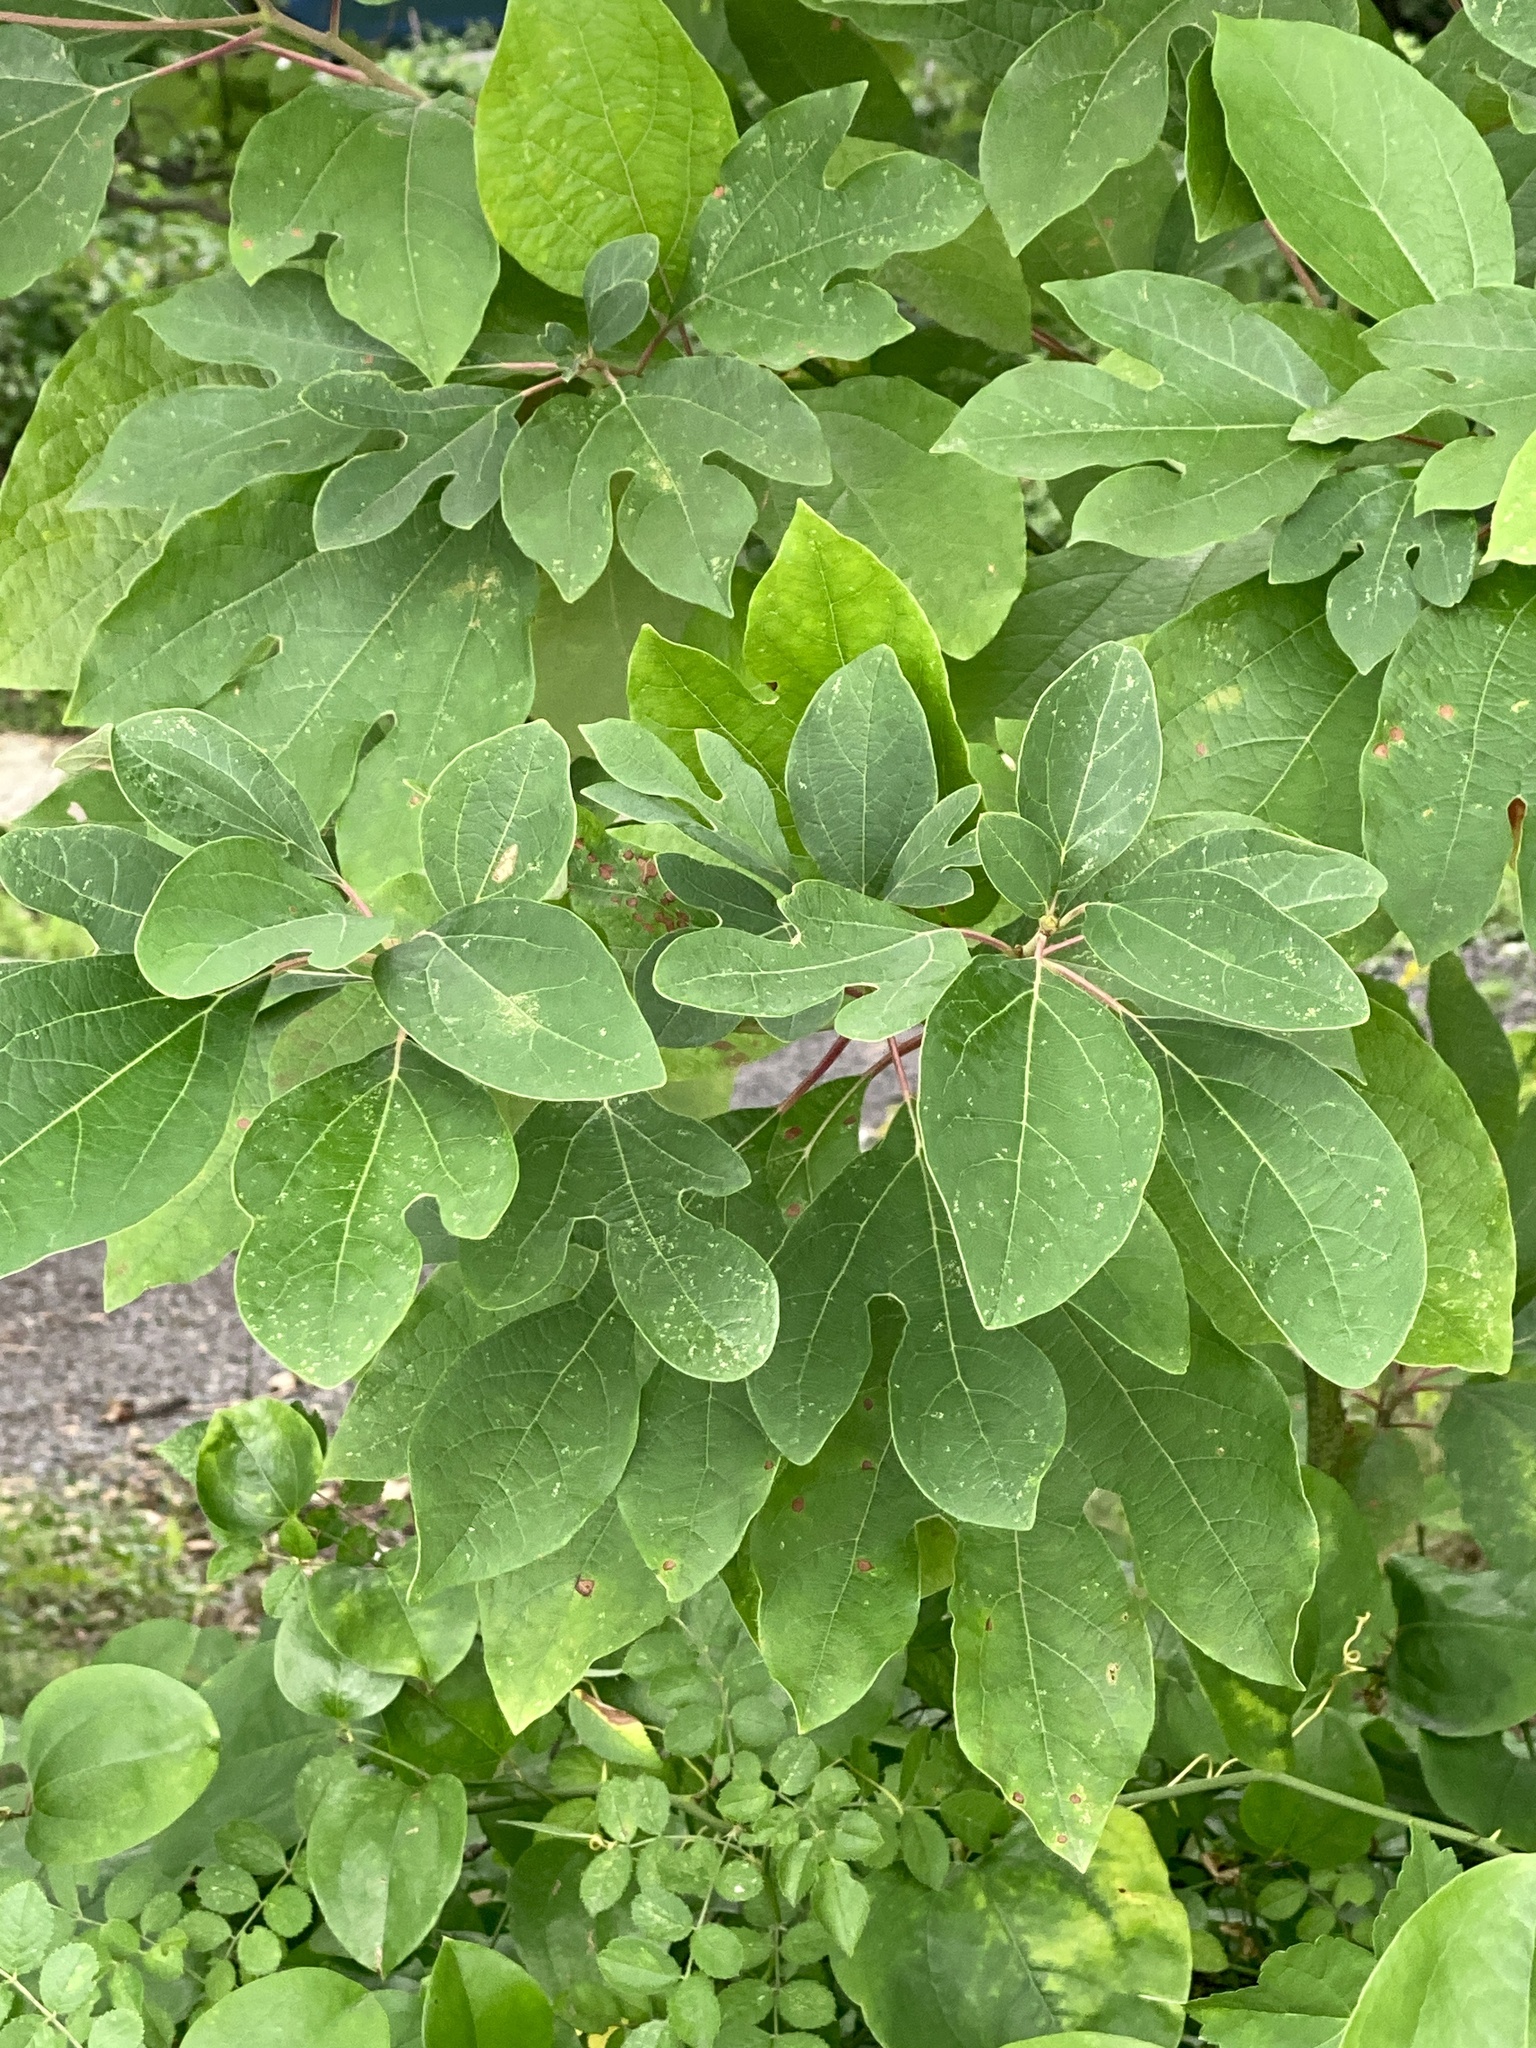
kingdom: Plantae
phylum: Tracheophyta
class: Magnoliopsida
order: Laurales
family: Lauraceae
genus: Sassafras
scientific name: Sassafras albidum
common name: Sassafras
